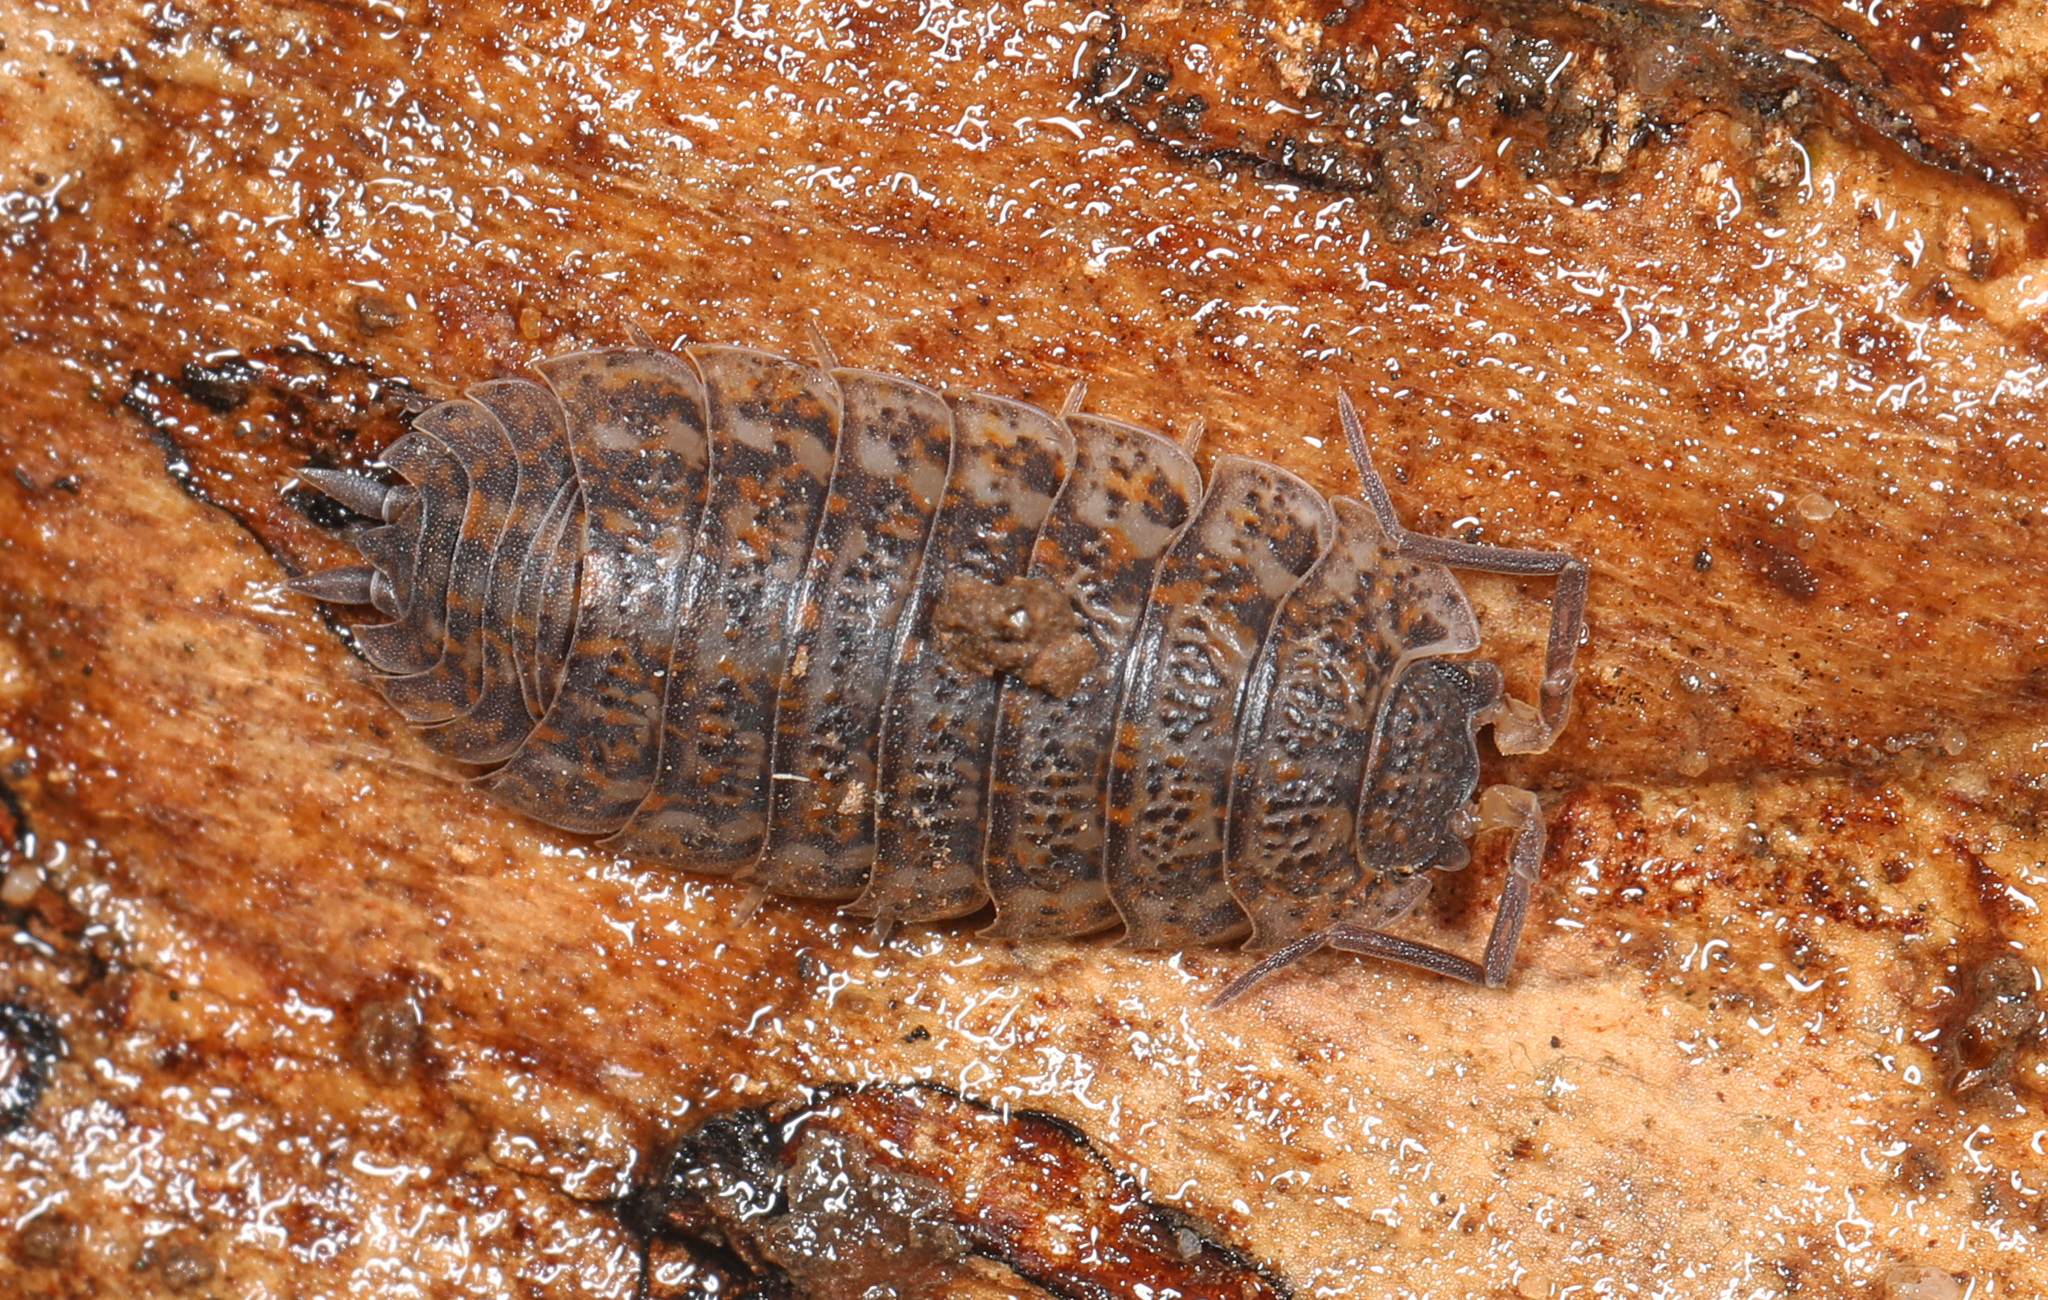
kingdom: Animalia
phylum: Arthropoda
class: Malacostraca
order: Isopoda
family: Trachelipodidae
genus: Trachelipus
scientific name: Trachelipus rathkii
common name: Isopod
